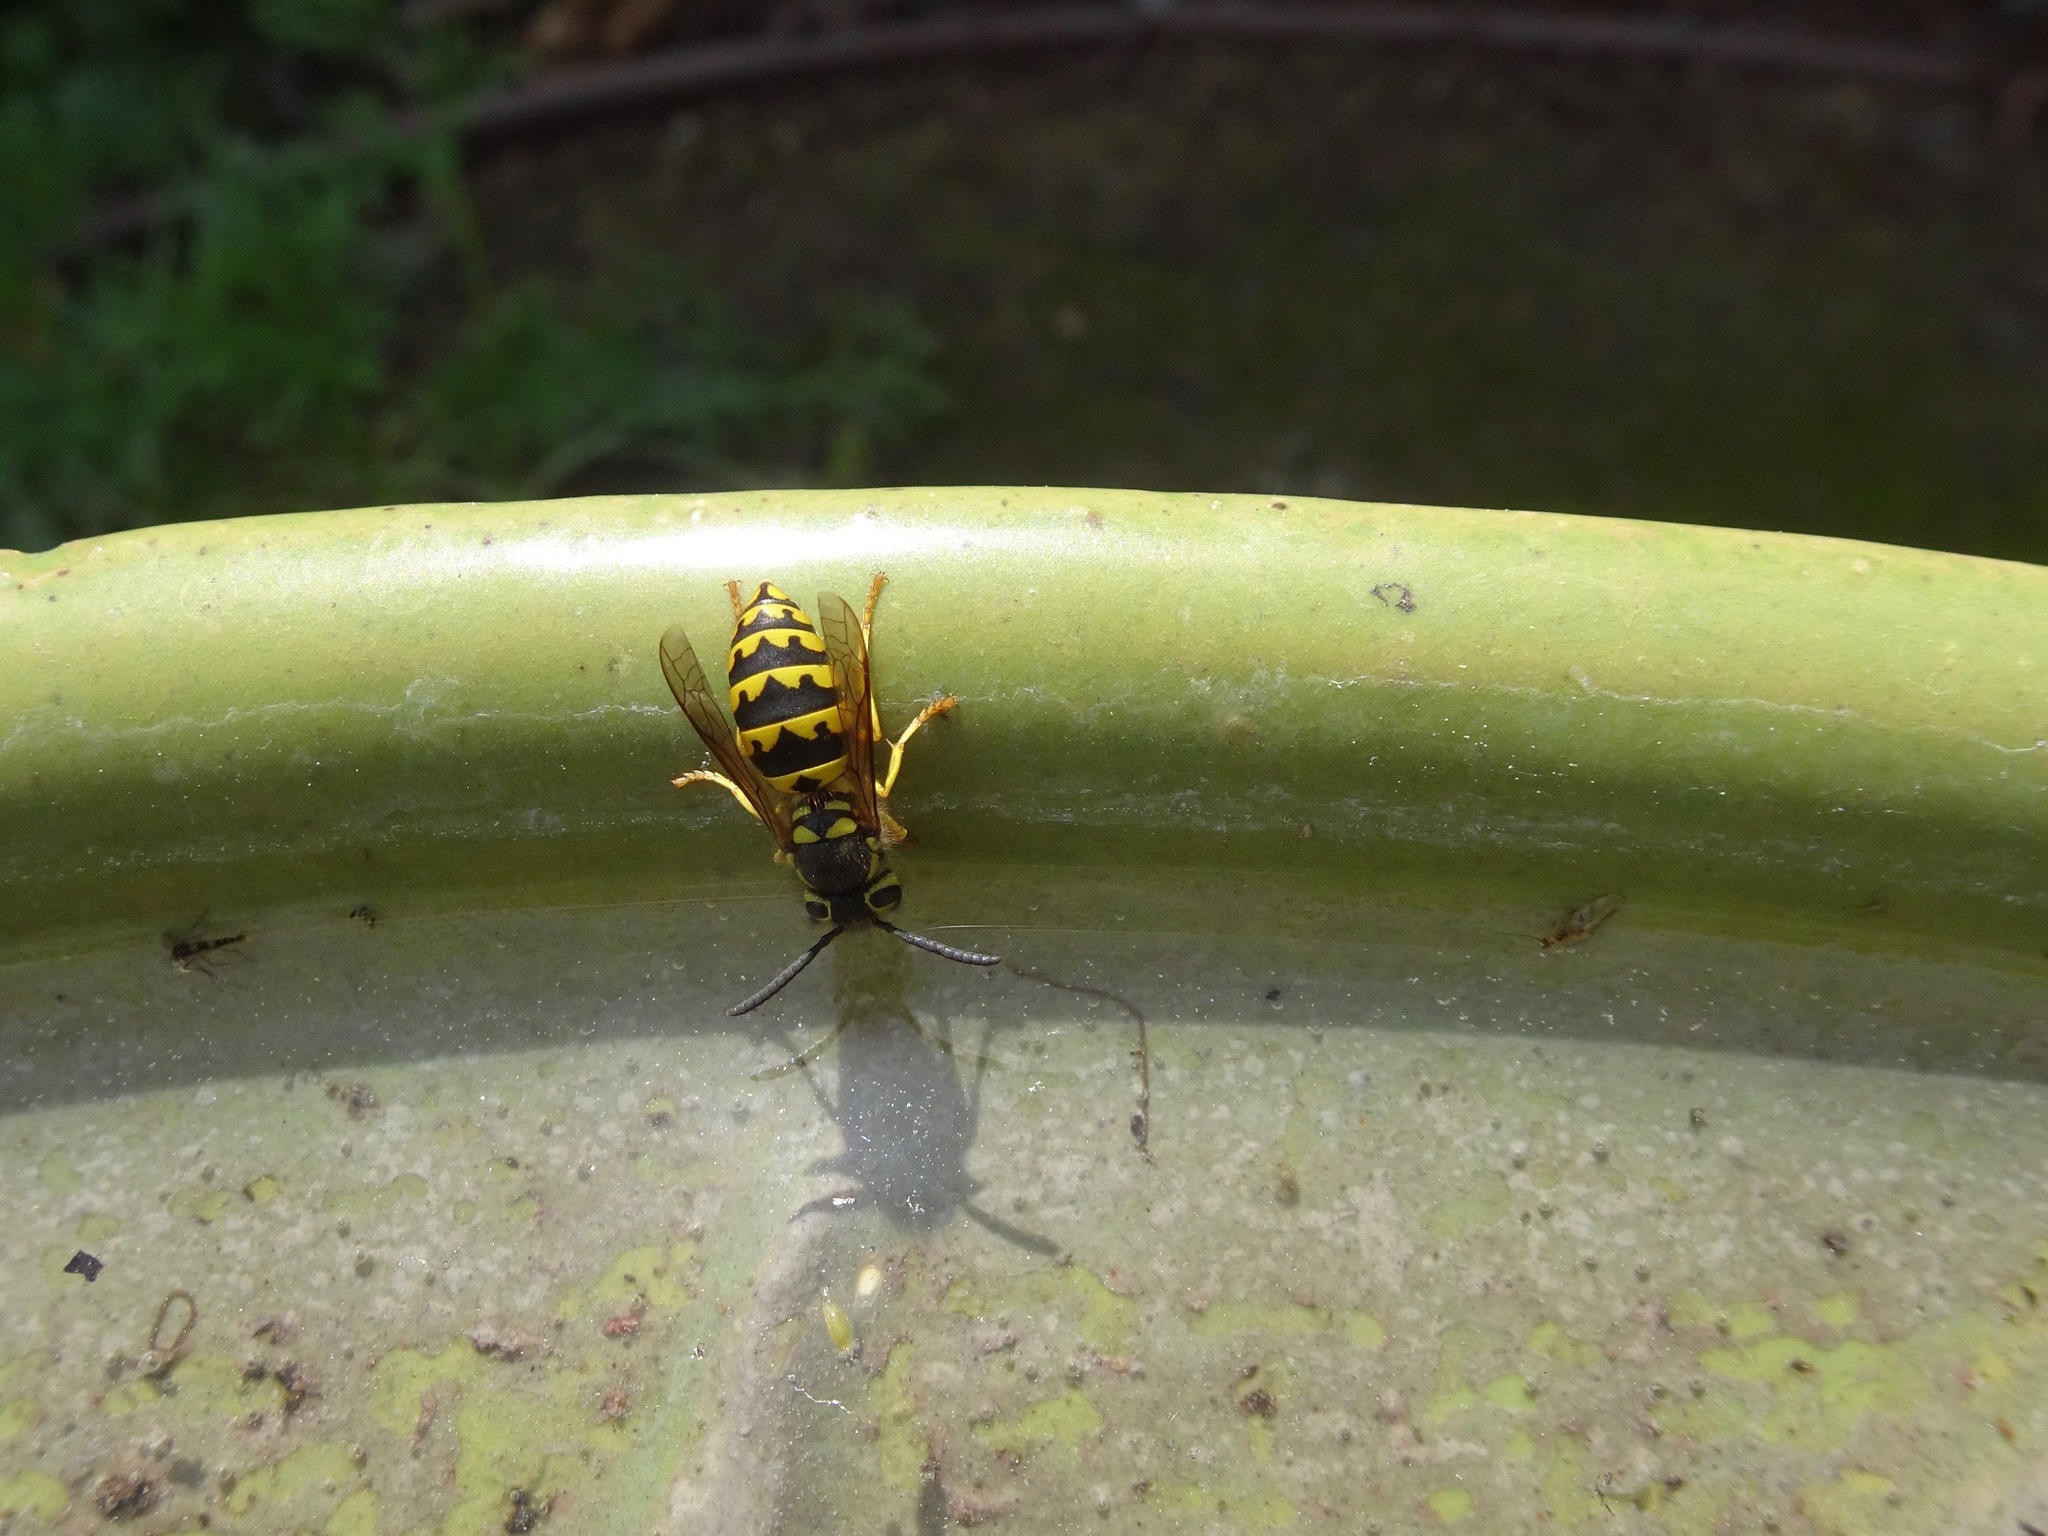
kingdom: Animalia
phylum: Arthropoda
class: Insecta
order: Hymenoptera
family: Vespidae
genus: Vespula
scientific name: Vespula pensylvanica
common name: Western yellowjacket
